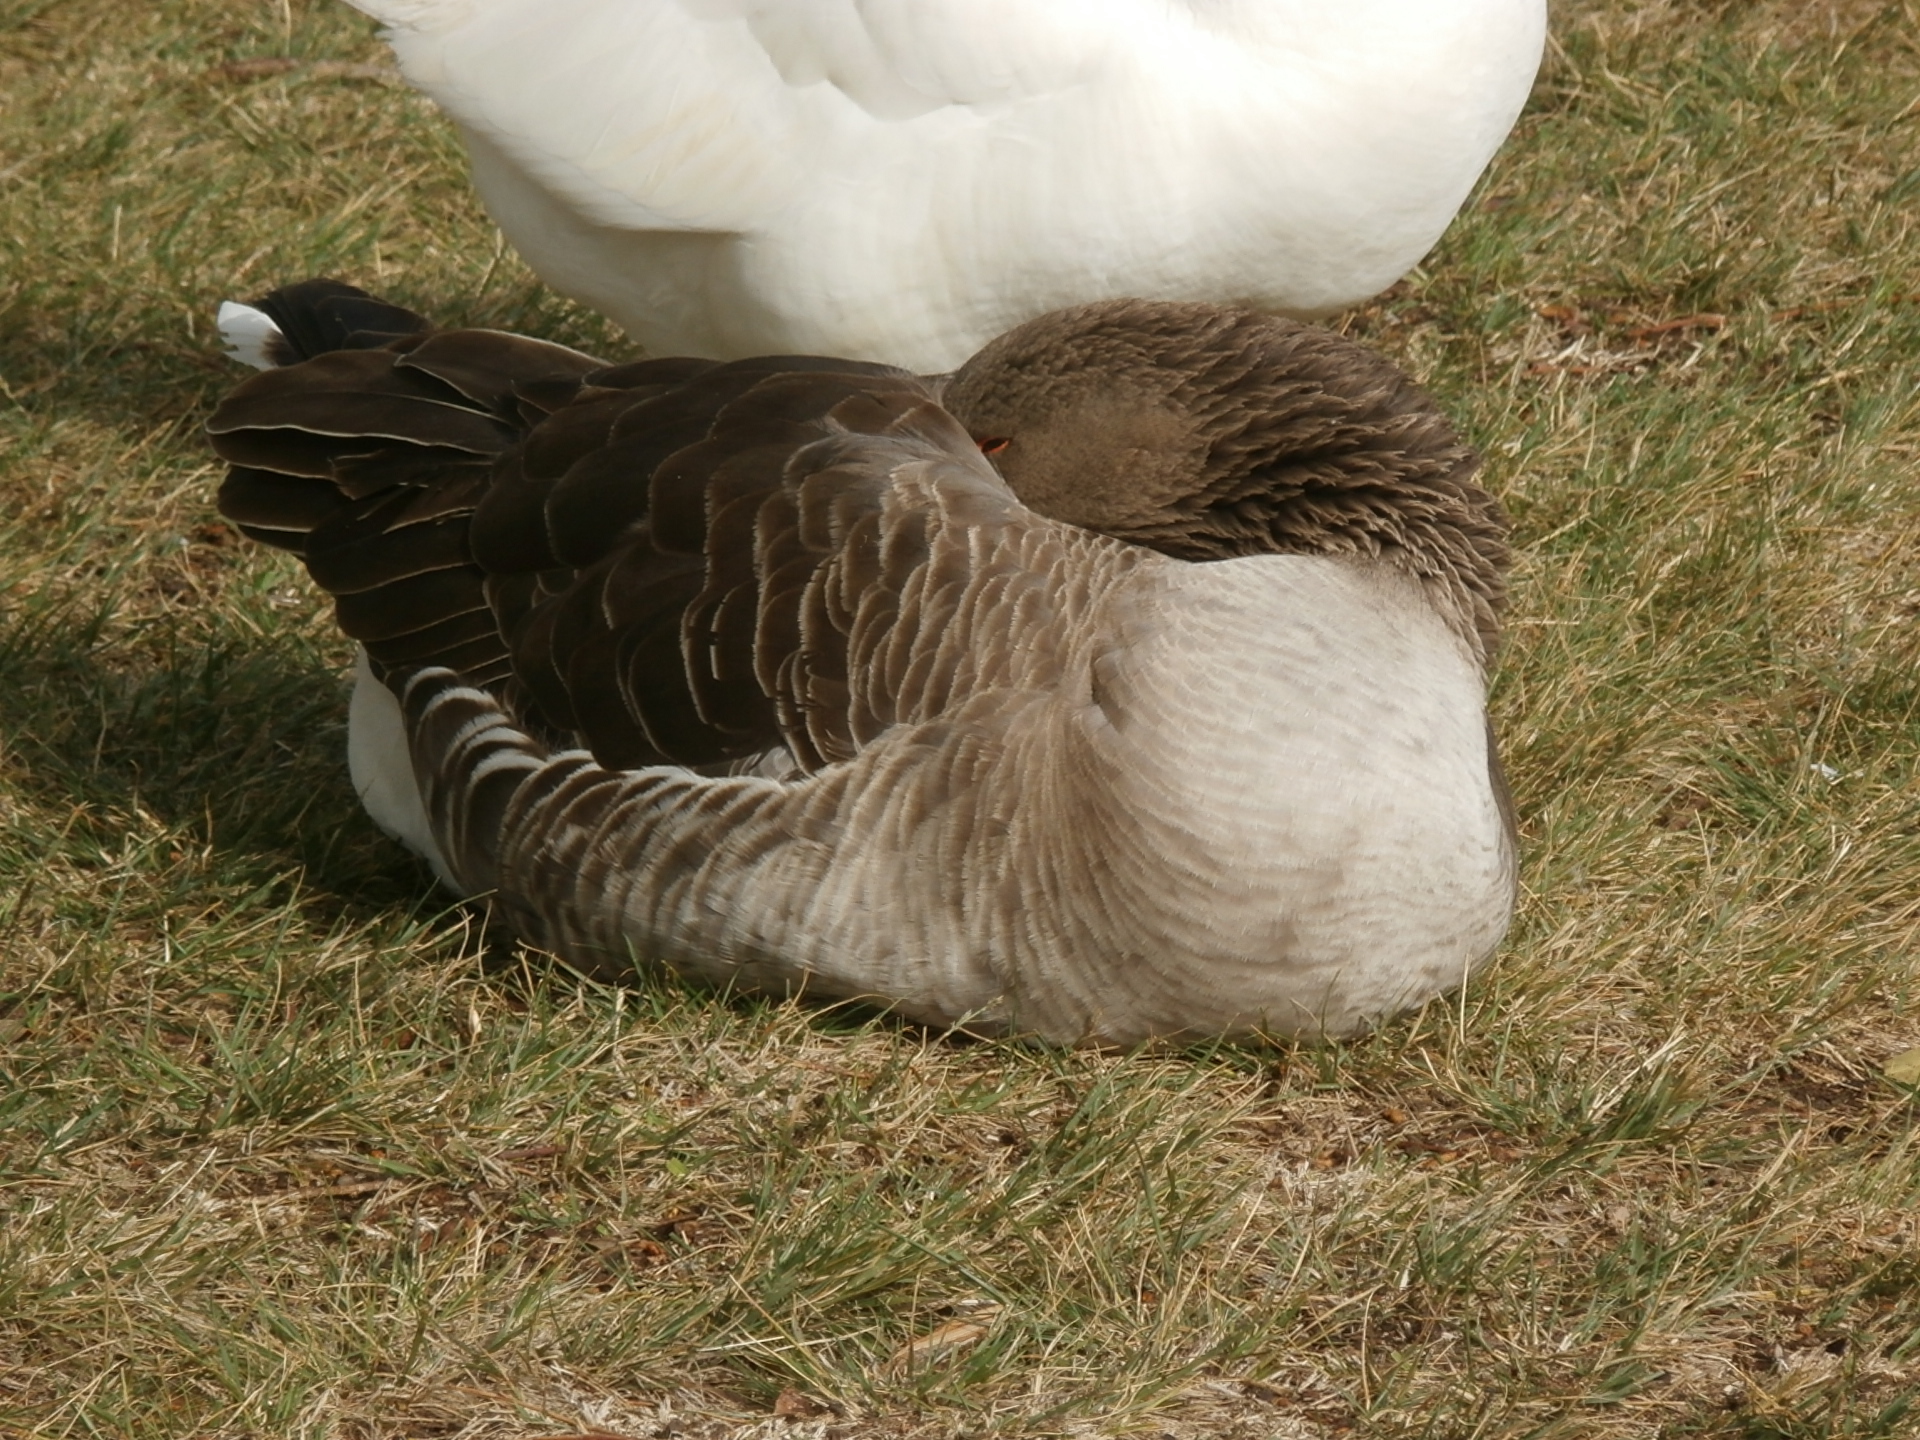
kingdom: Animalia
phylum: Chordata
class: Aves
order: Anseriformes
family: Anatidae
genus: Anser
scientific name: Anser anser
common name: Greylag goose
